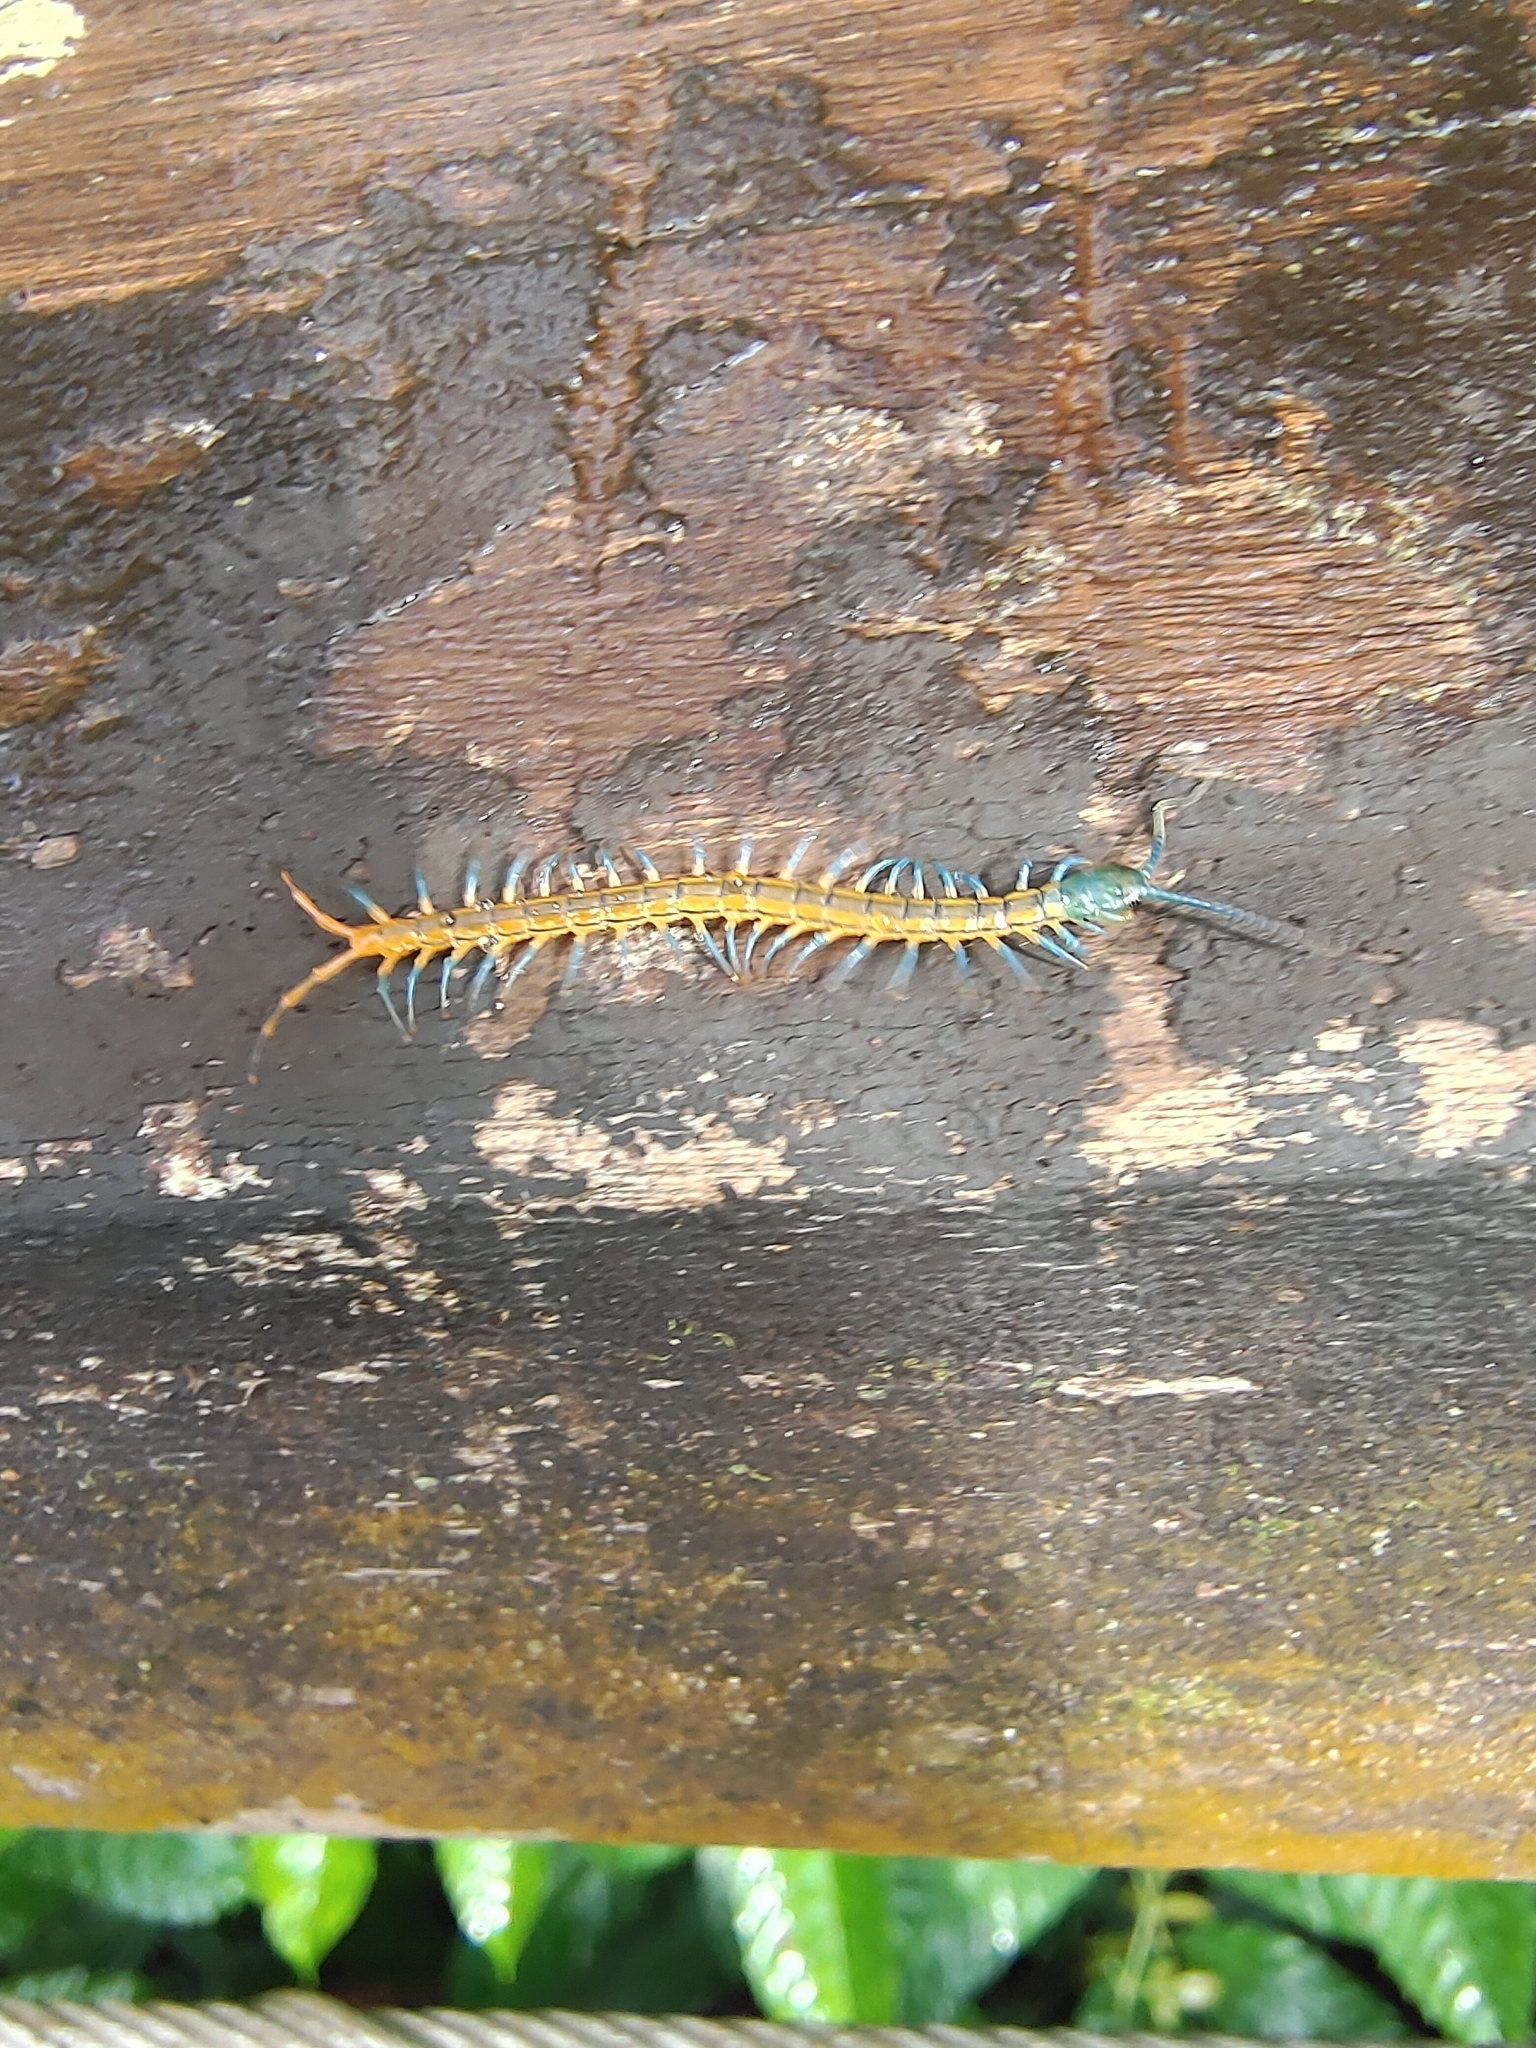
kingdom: Animalia
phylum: Arthropoda
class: Chilopoda
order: Scolopendromorpha
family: Scolopendridae
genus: Scolopendra
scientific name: Scolopendra subspinipes
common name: Centipede
